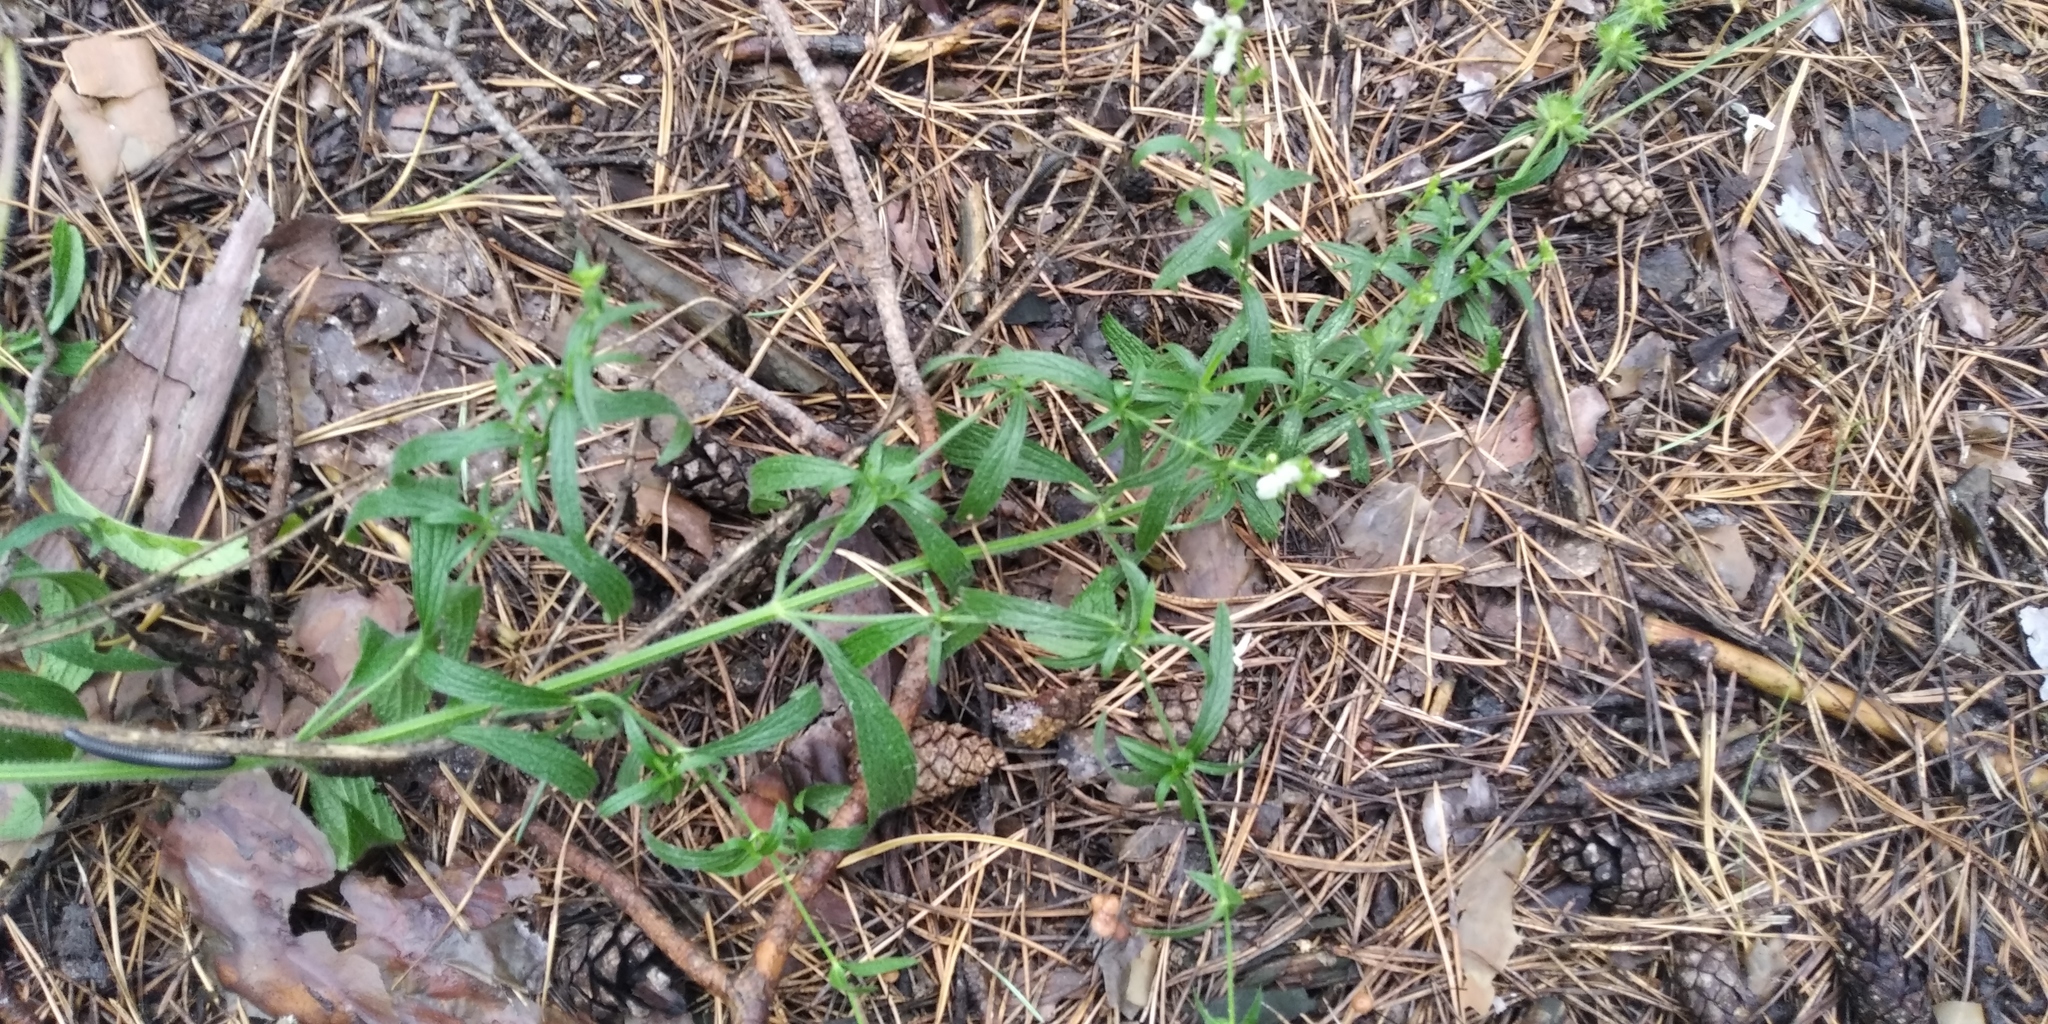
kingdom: Plantae
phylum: Tracheophyta
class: Magnoliopsida
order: Lamiales
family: Lamiaceae
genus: Stachys
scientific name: Stachys recta
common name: Perennial yellow-woundwort
